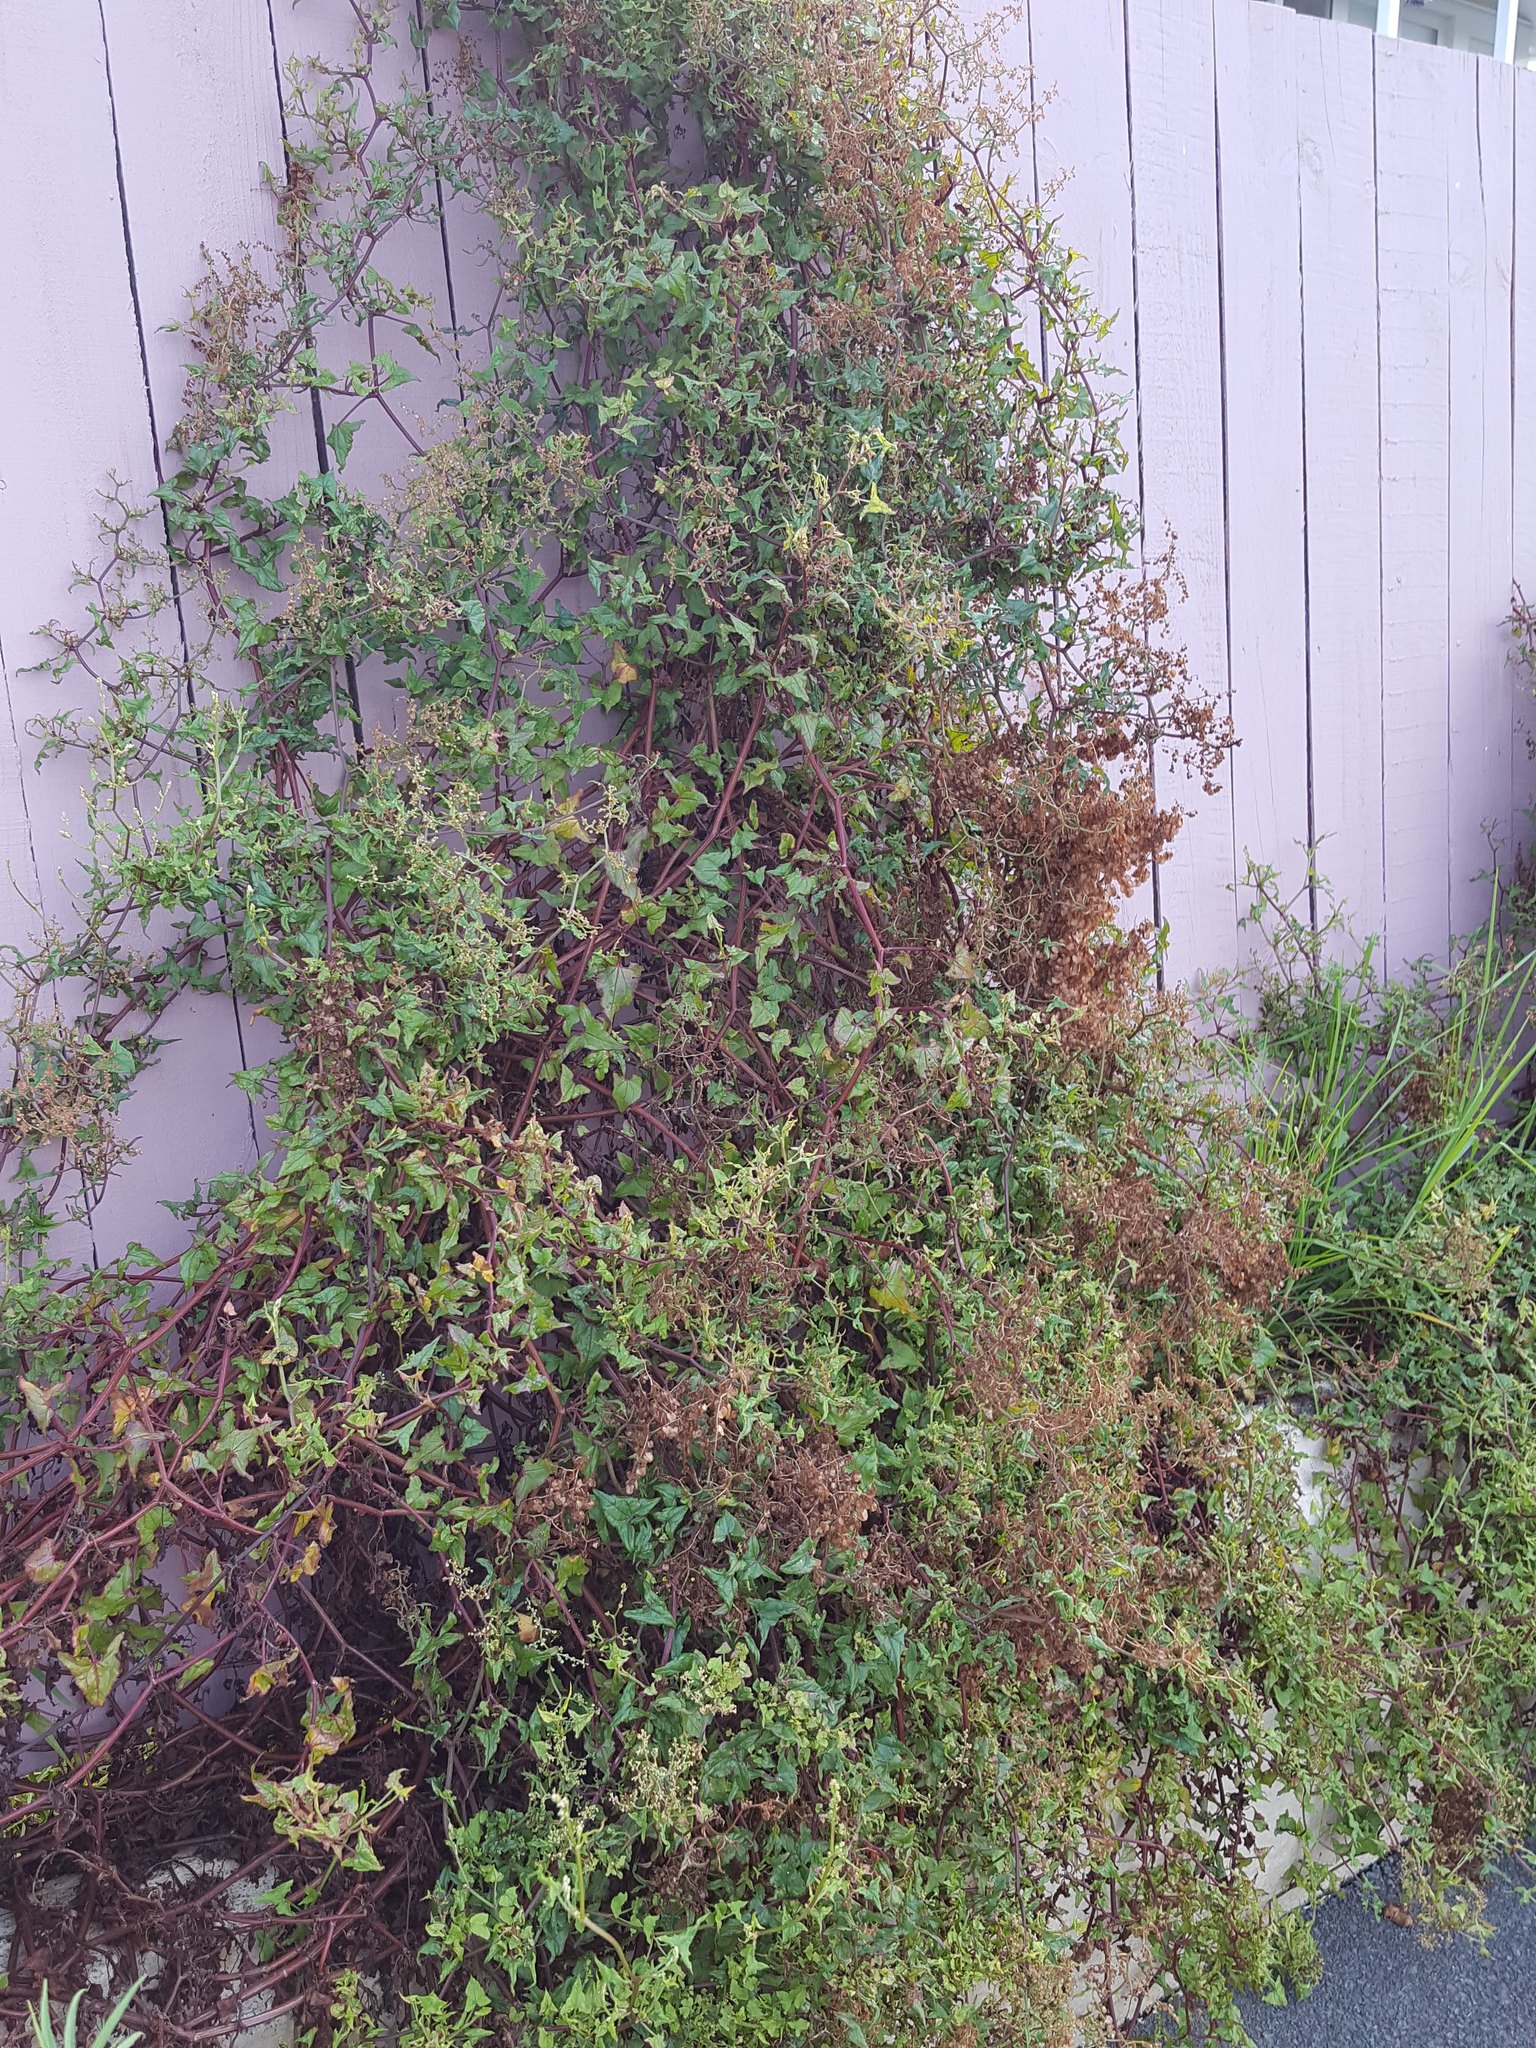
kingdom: Plantae
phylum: Tracheophyta
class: Magnoliopsida
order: Caryophyllales
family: Polygonaceae
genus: Rumex
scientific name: Rumex sagittatus
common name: Climbing dock
